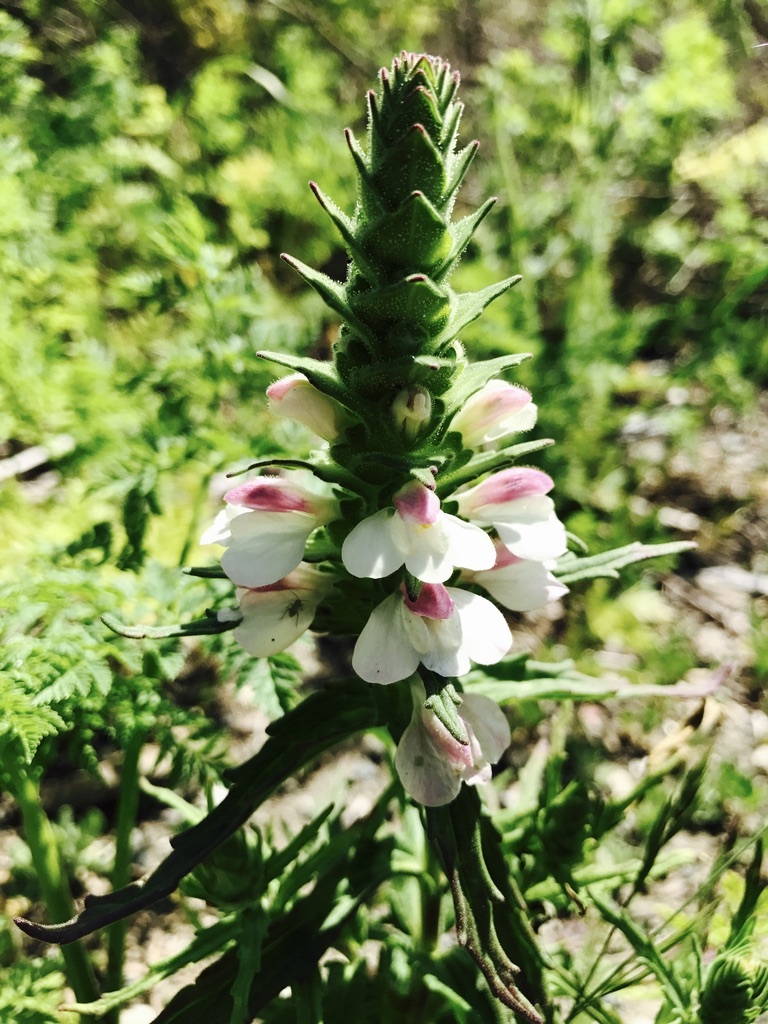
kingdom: Plantae
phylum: Tracheophyta
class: Magnoliopsida
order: Lamiales
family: Orobanchaceae
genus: Bellardia
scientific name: Bellardia trixago
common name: Mediterranean lineseed
